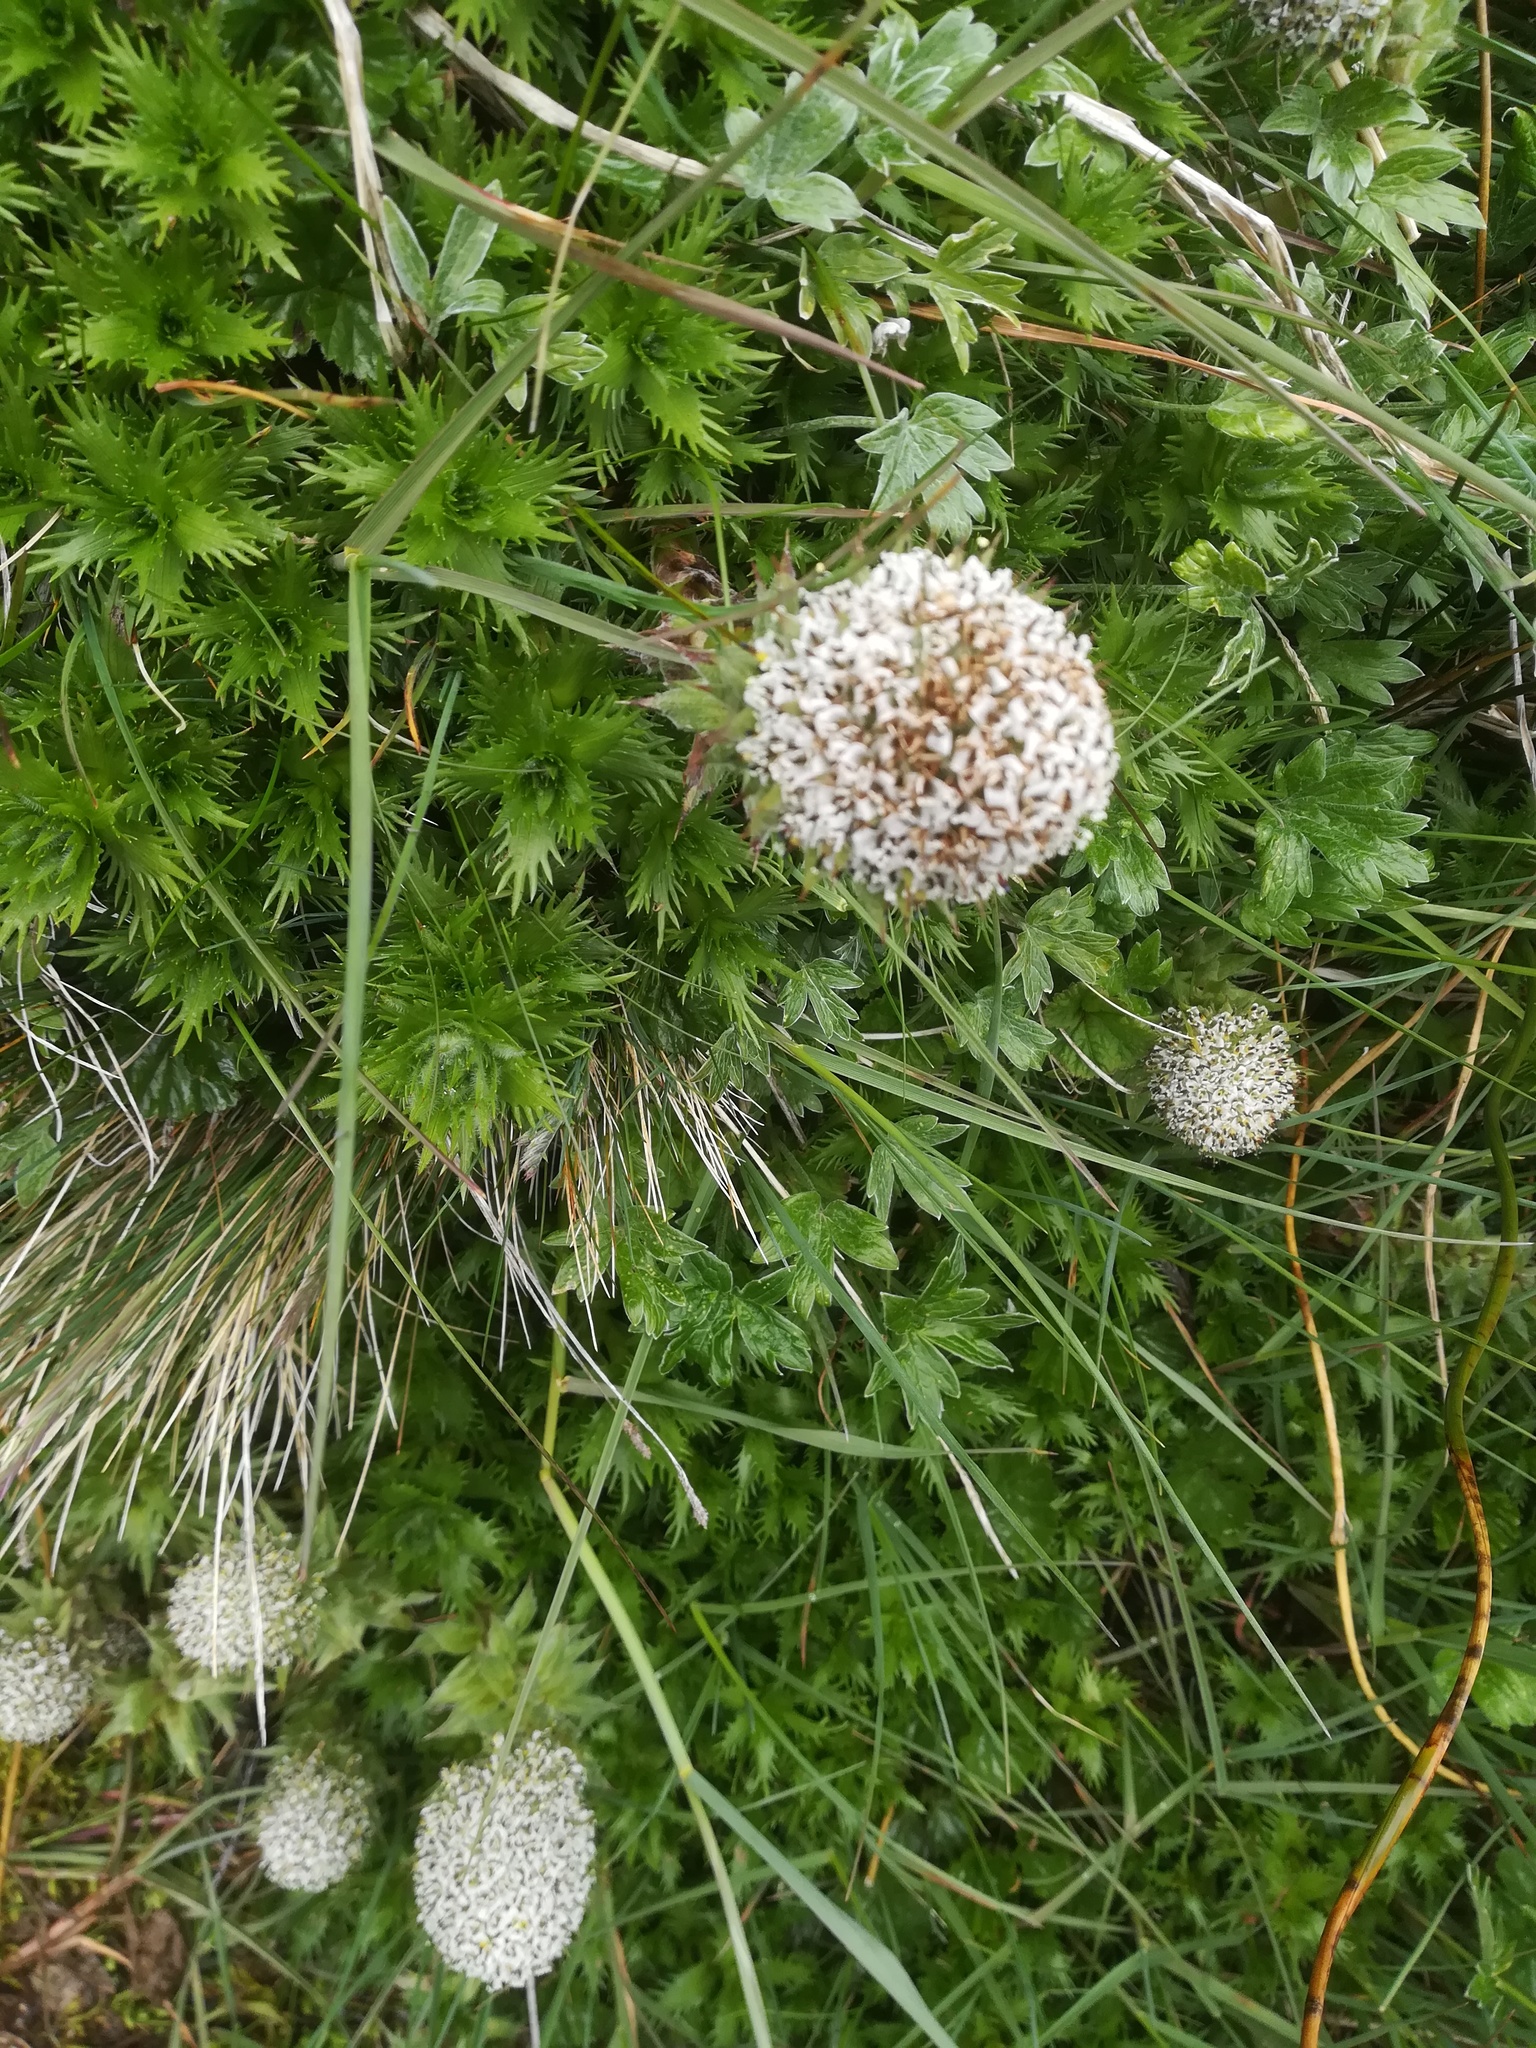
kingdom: Plantae
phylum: Tracheophyta
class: Magnoliopsida
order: Asterales
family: Asteraceae
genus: Nassauvia
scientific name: Nassauvia magellanica
